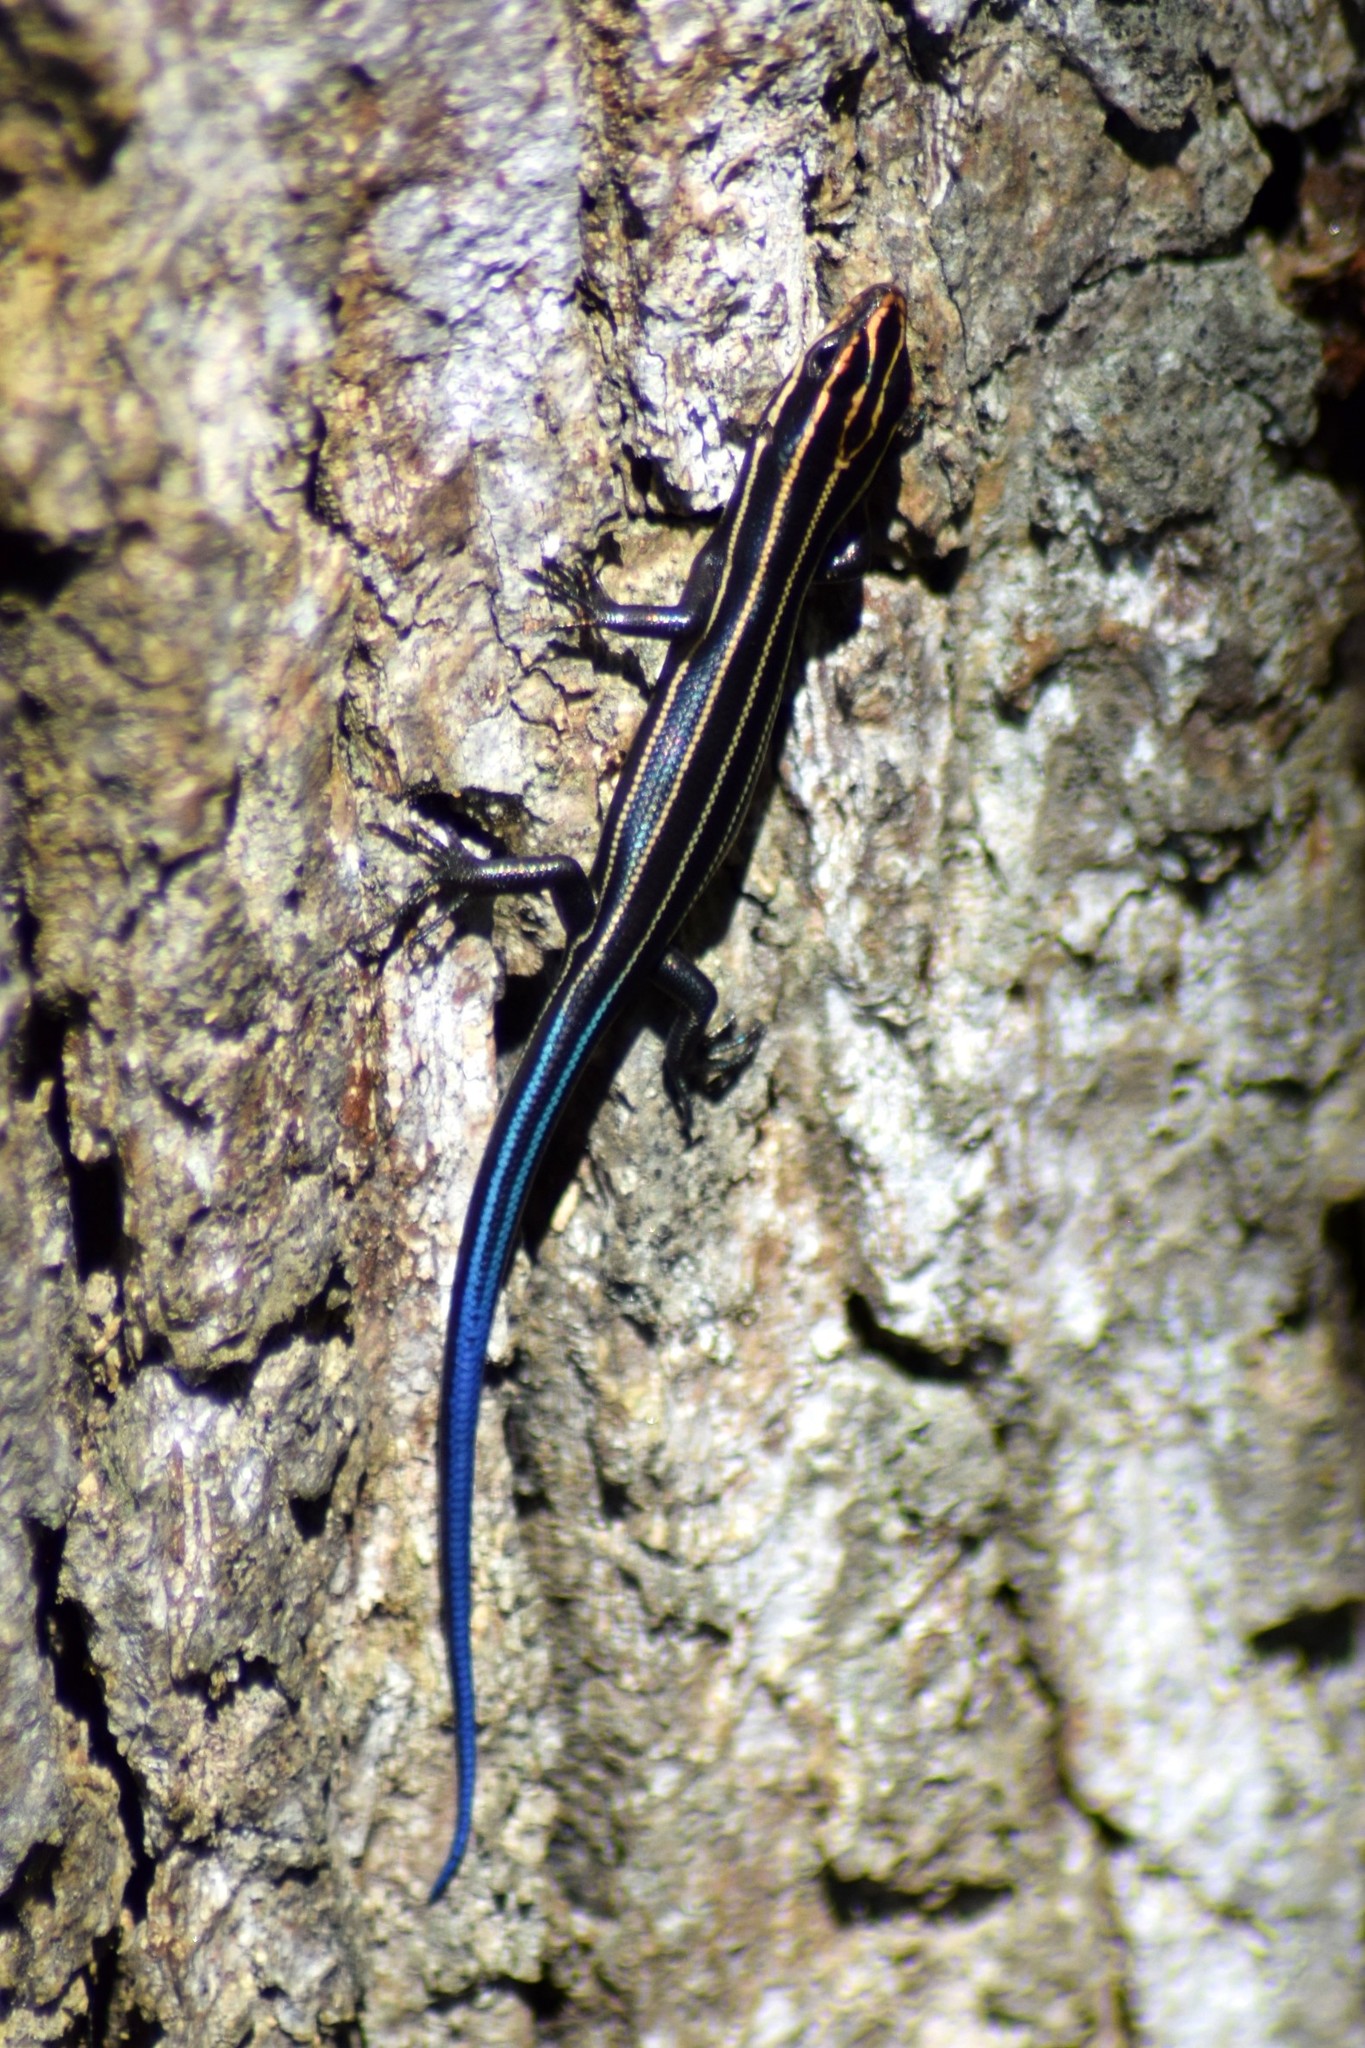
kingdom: Animalia
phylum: Chordata
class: Squamata
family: Scincidae
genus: Plestiodon
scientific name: Plestiodon fasciatus
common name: Five-lined skink
